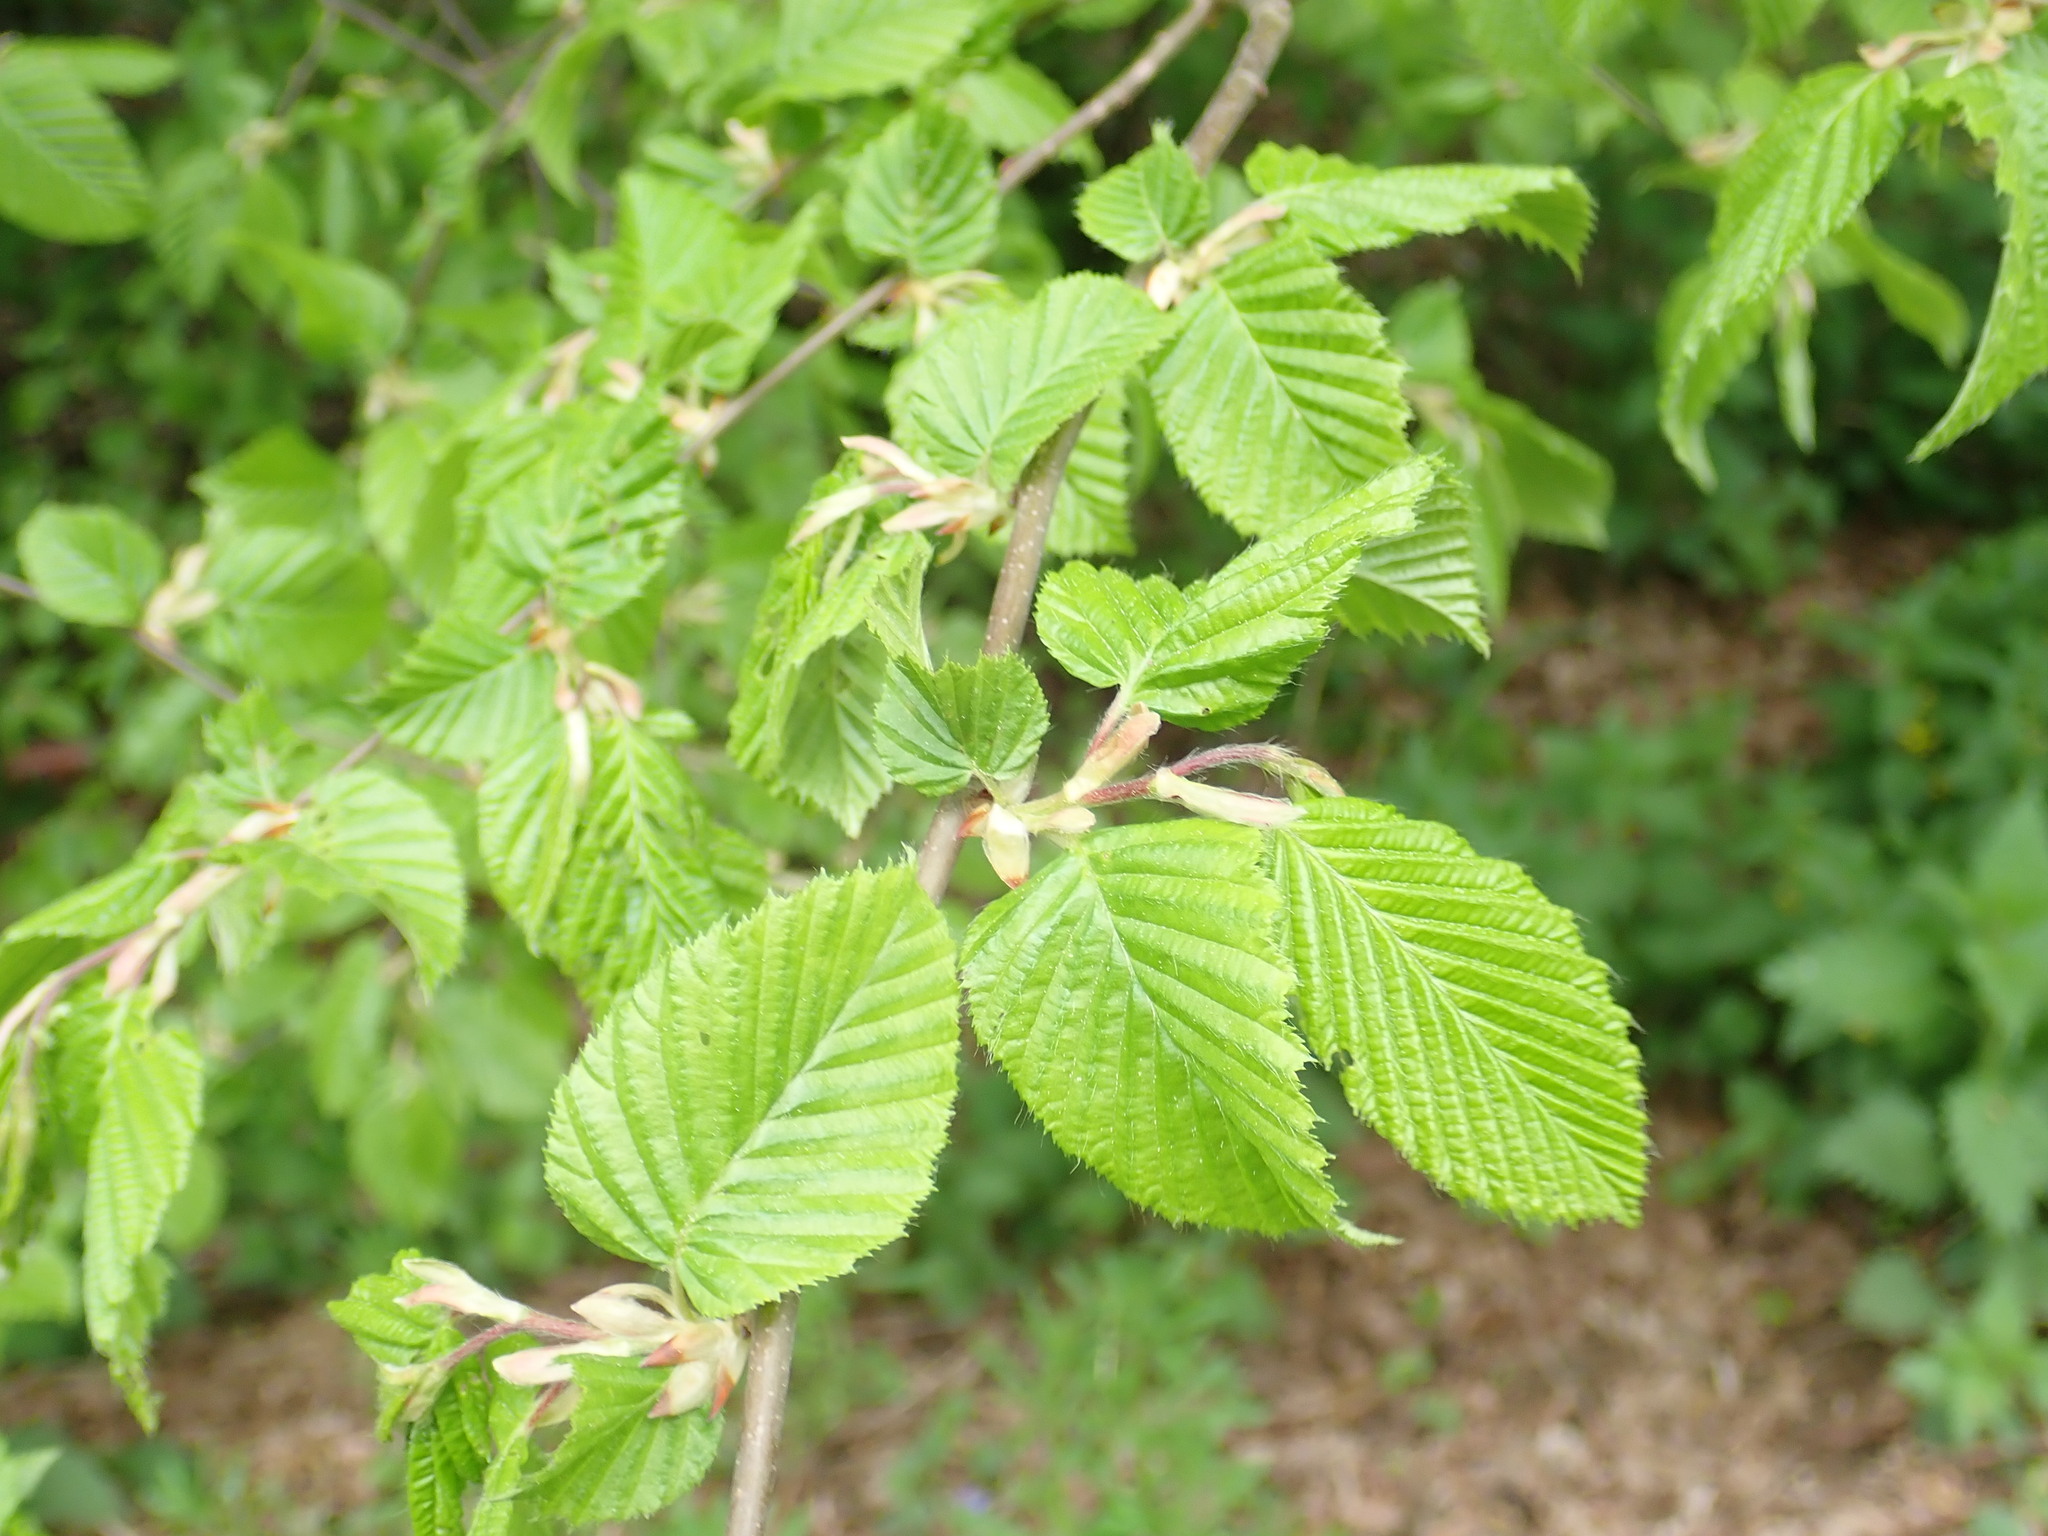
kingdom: Plantae
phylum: Tracheophyta
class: Magnoliopsida
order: Fagales
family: Betulaceae
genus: Carpinus
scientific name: Carpinus betulus
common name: Hornbeam
